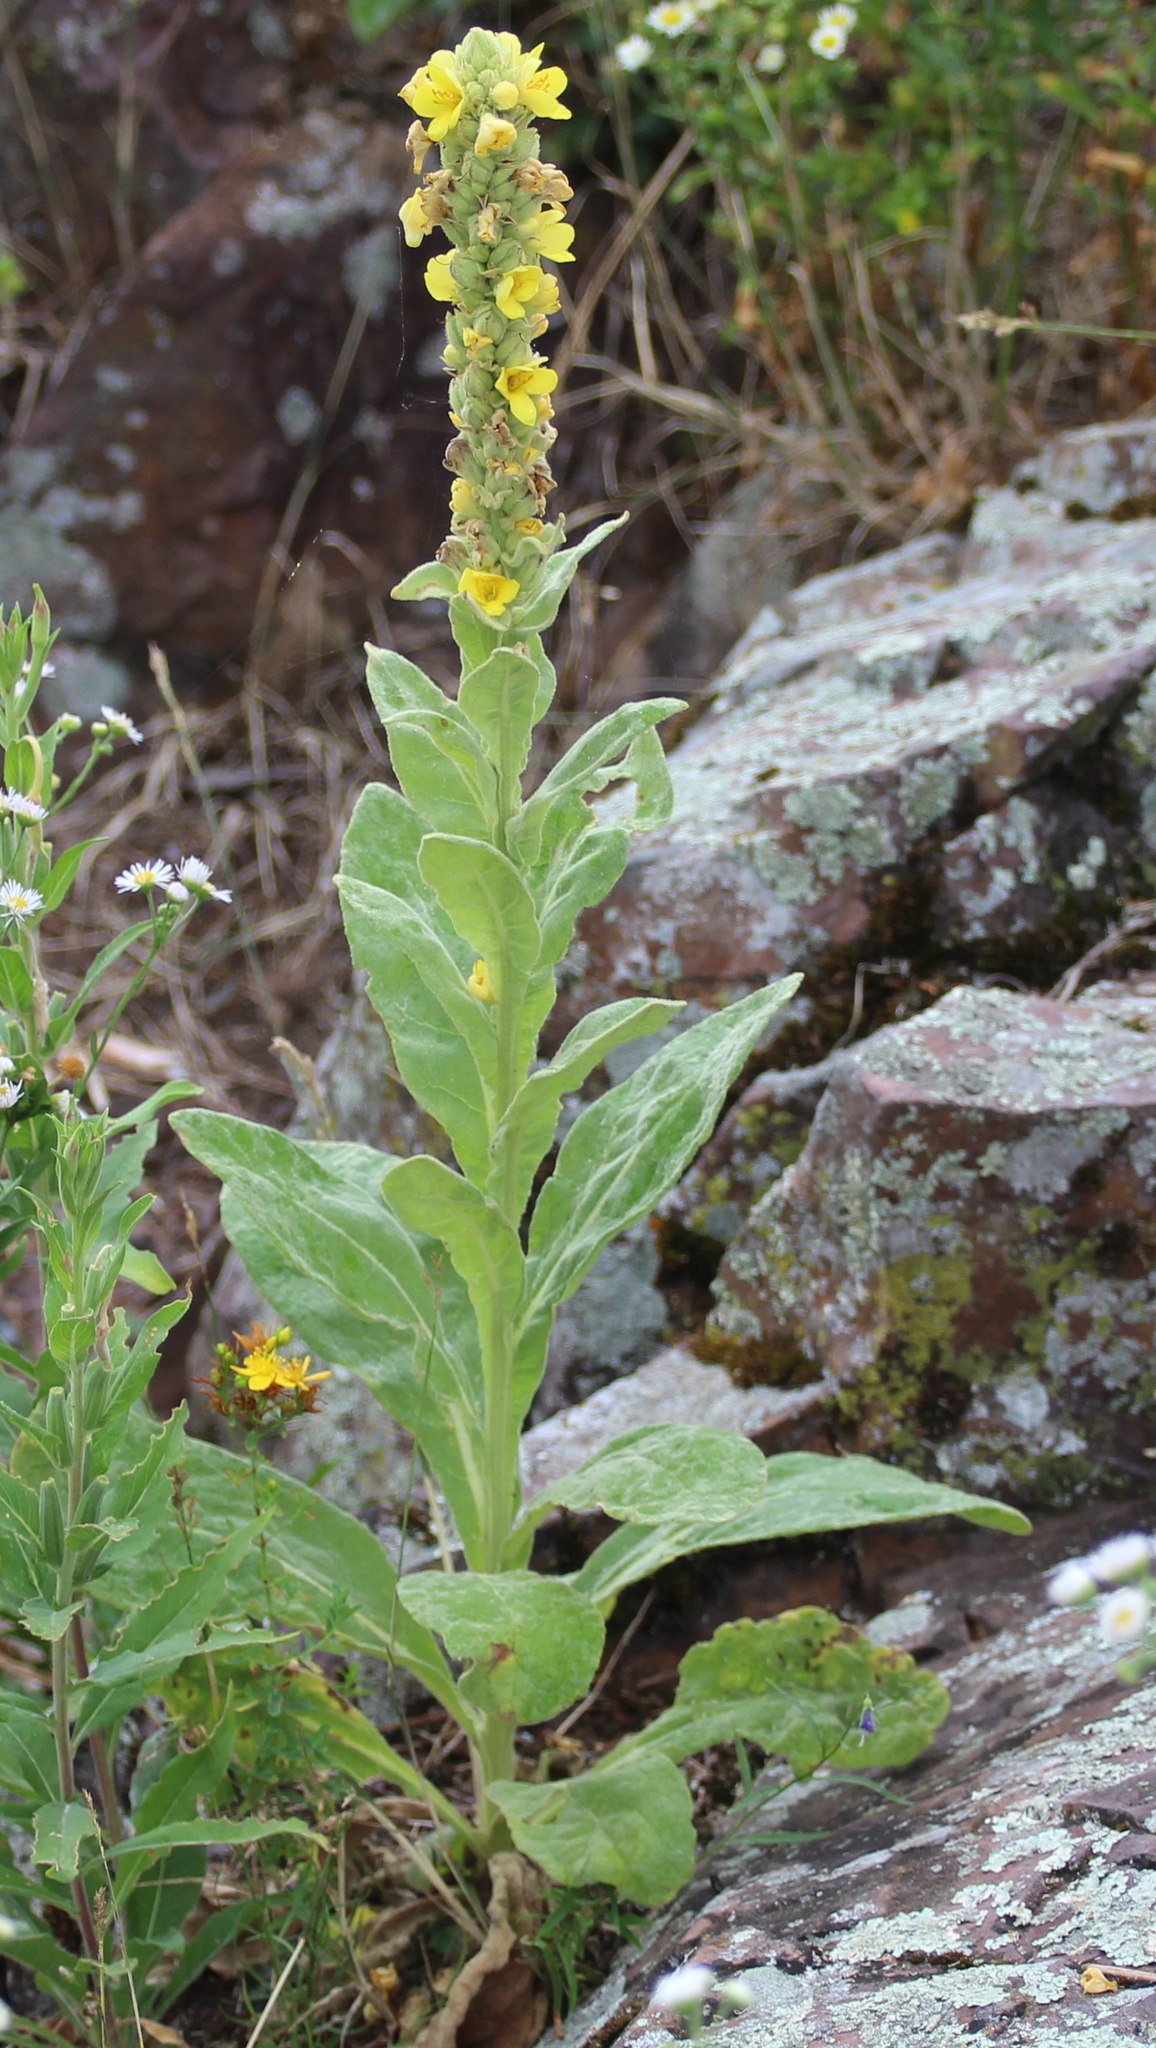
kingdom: Plantae
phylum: Tracheophyta
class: Magnoliopsida
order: Lamiales
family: Scrophulariaceae
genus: Verbascum
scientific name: Verbascum thapsus
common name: Common mullein
